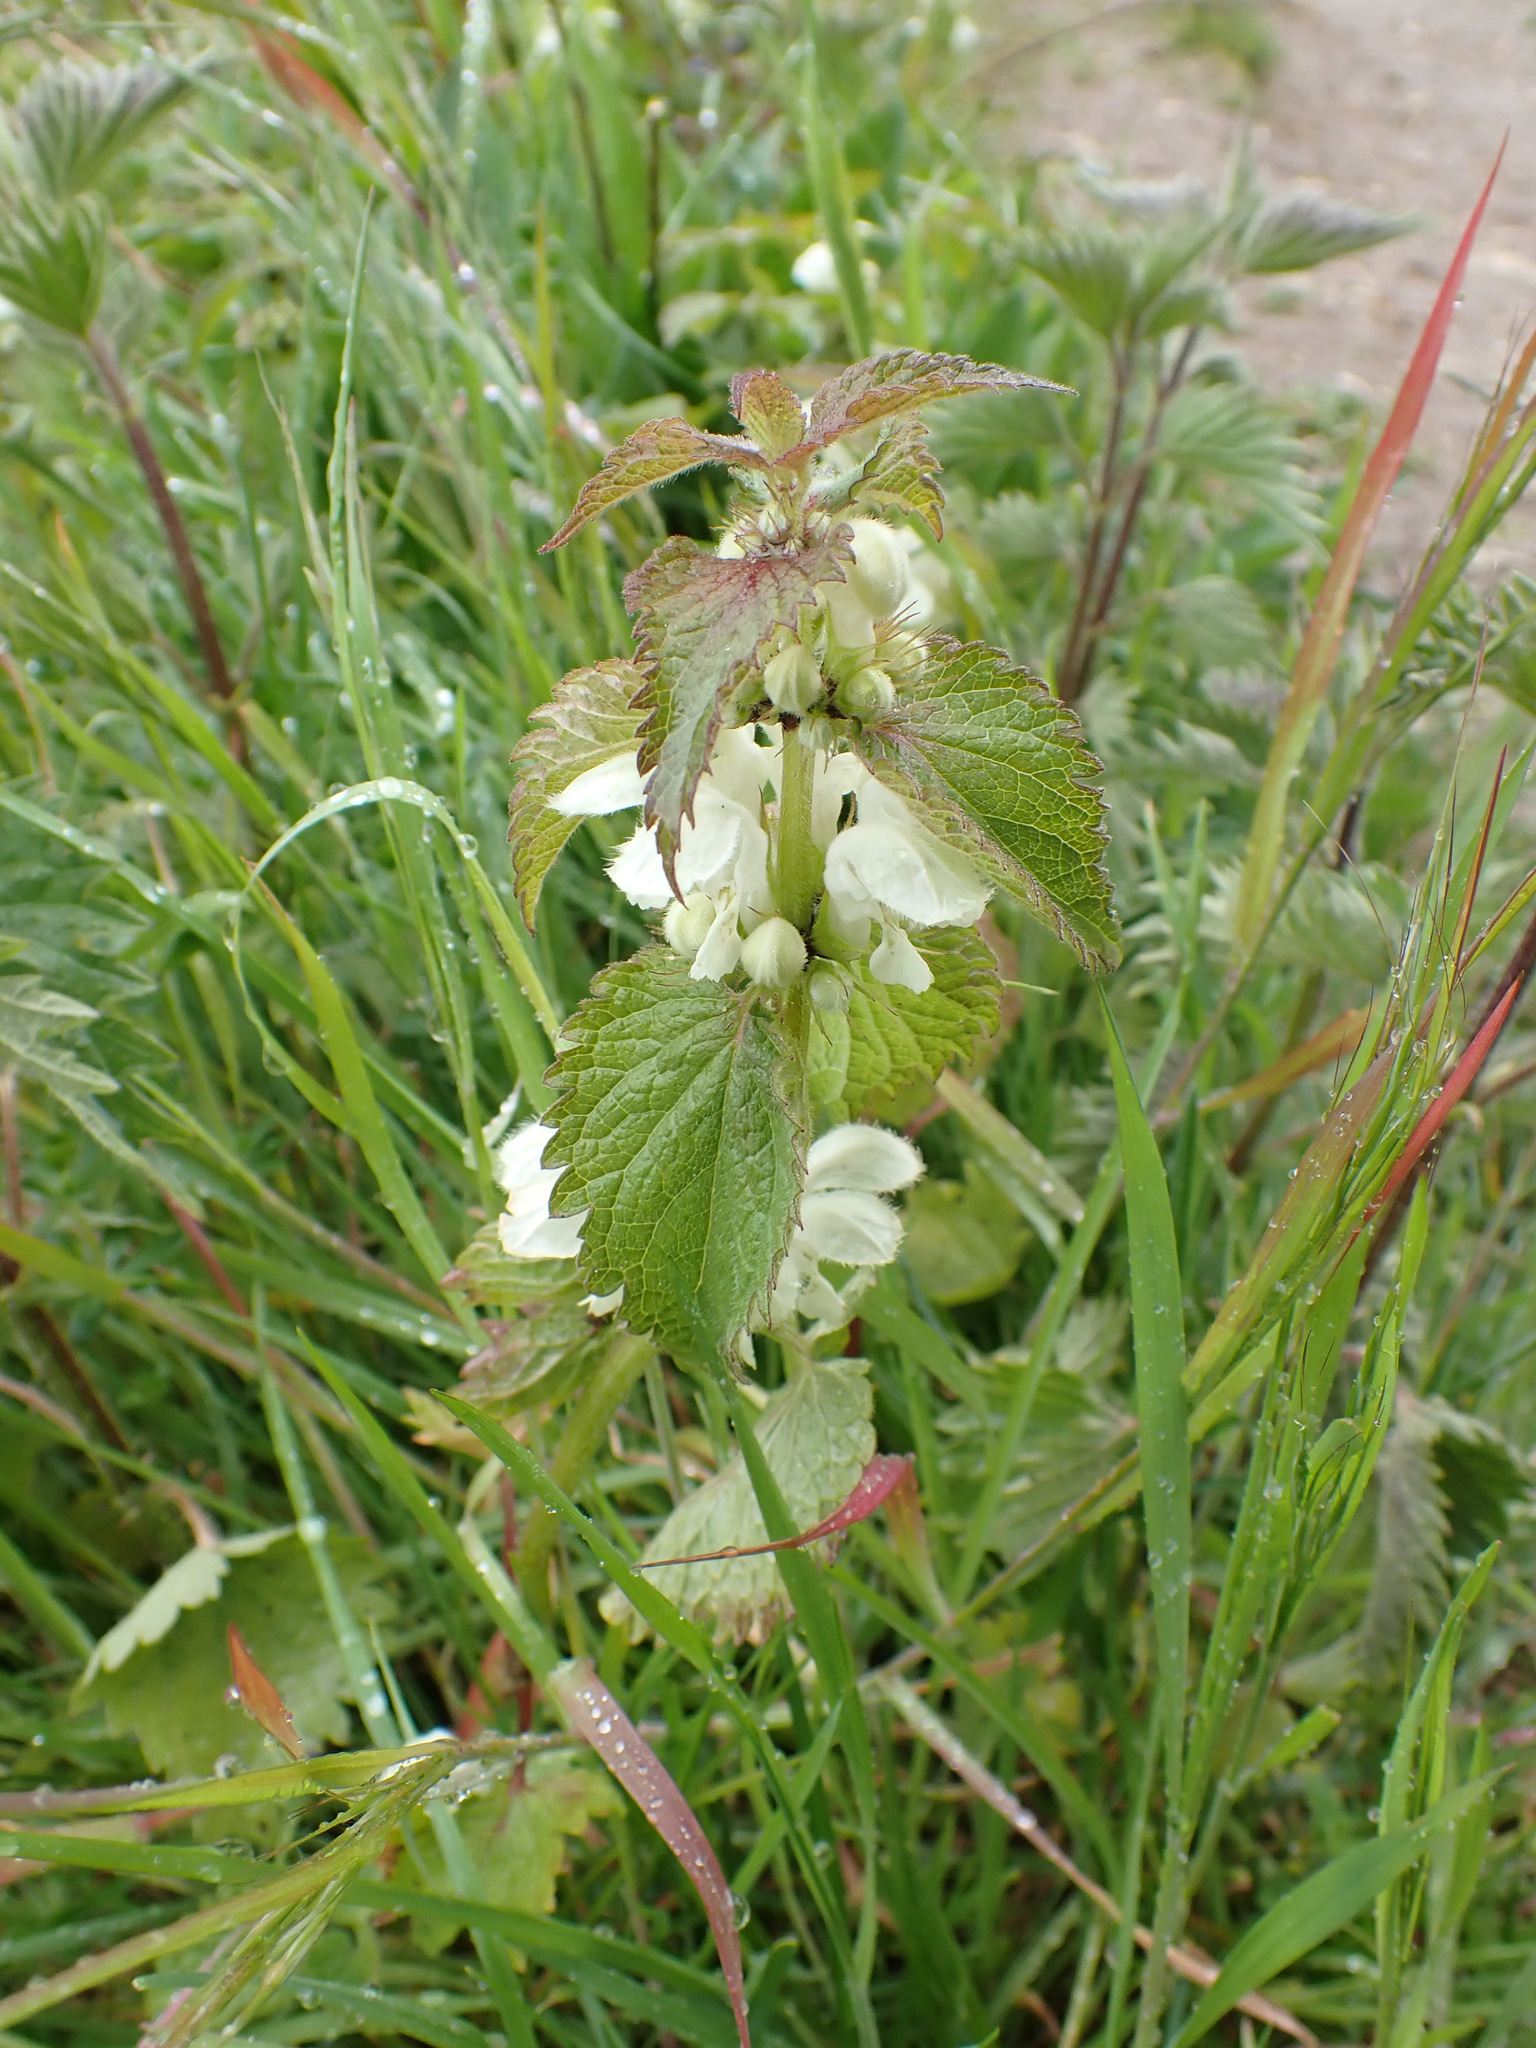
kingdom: Plantae
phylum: Tracheophyta
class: Magnoliopsida
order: Lamiales
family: Lamiaceae
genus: Lamium
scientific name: Lamium album
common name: White dead-nettle
